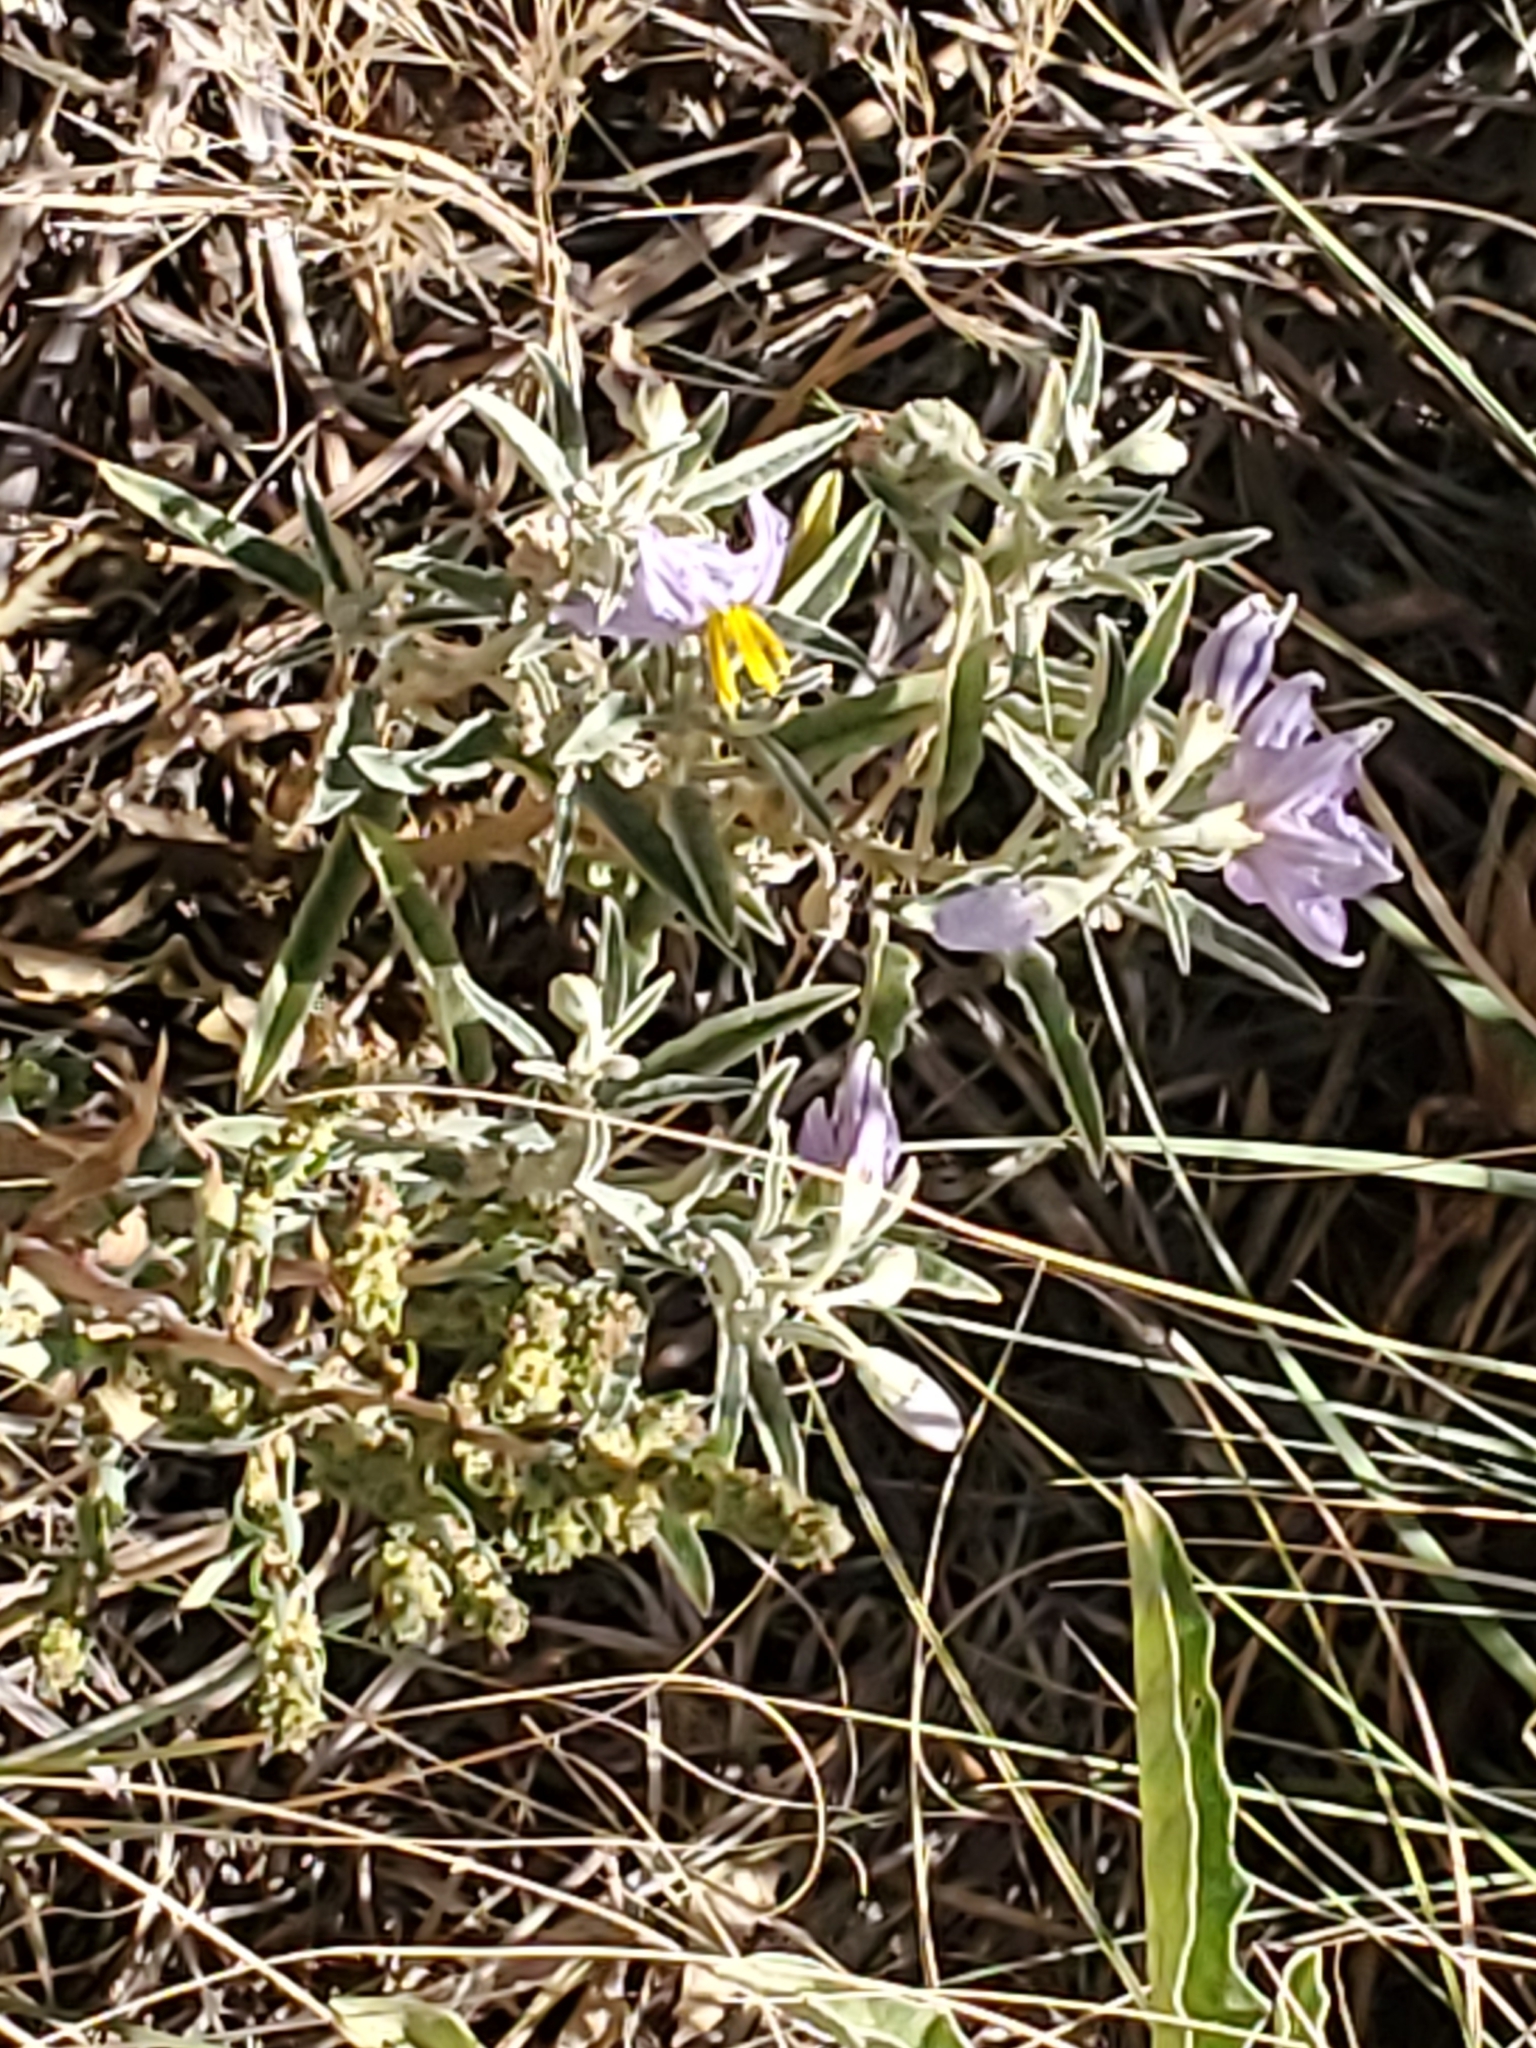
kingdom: Plantae
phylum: Tracheophyta
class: Magnoliopsida
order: Solanales
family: Solanaceae
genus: Solanum
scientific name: Solanum elaeagnifolium
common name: Silverleaf nightshade
